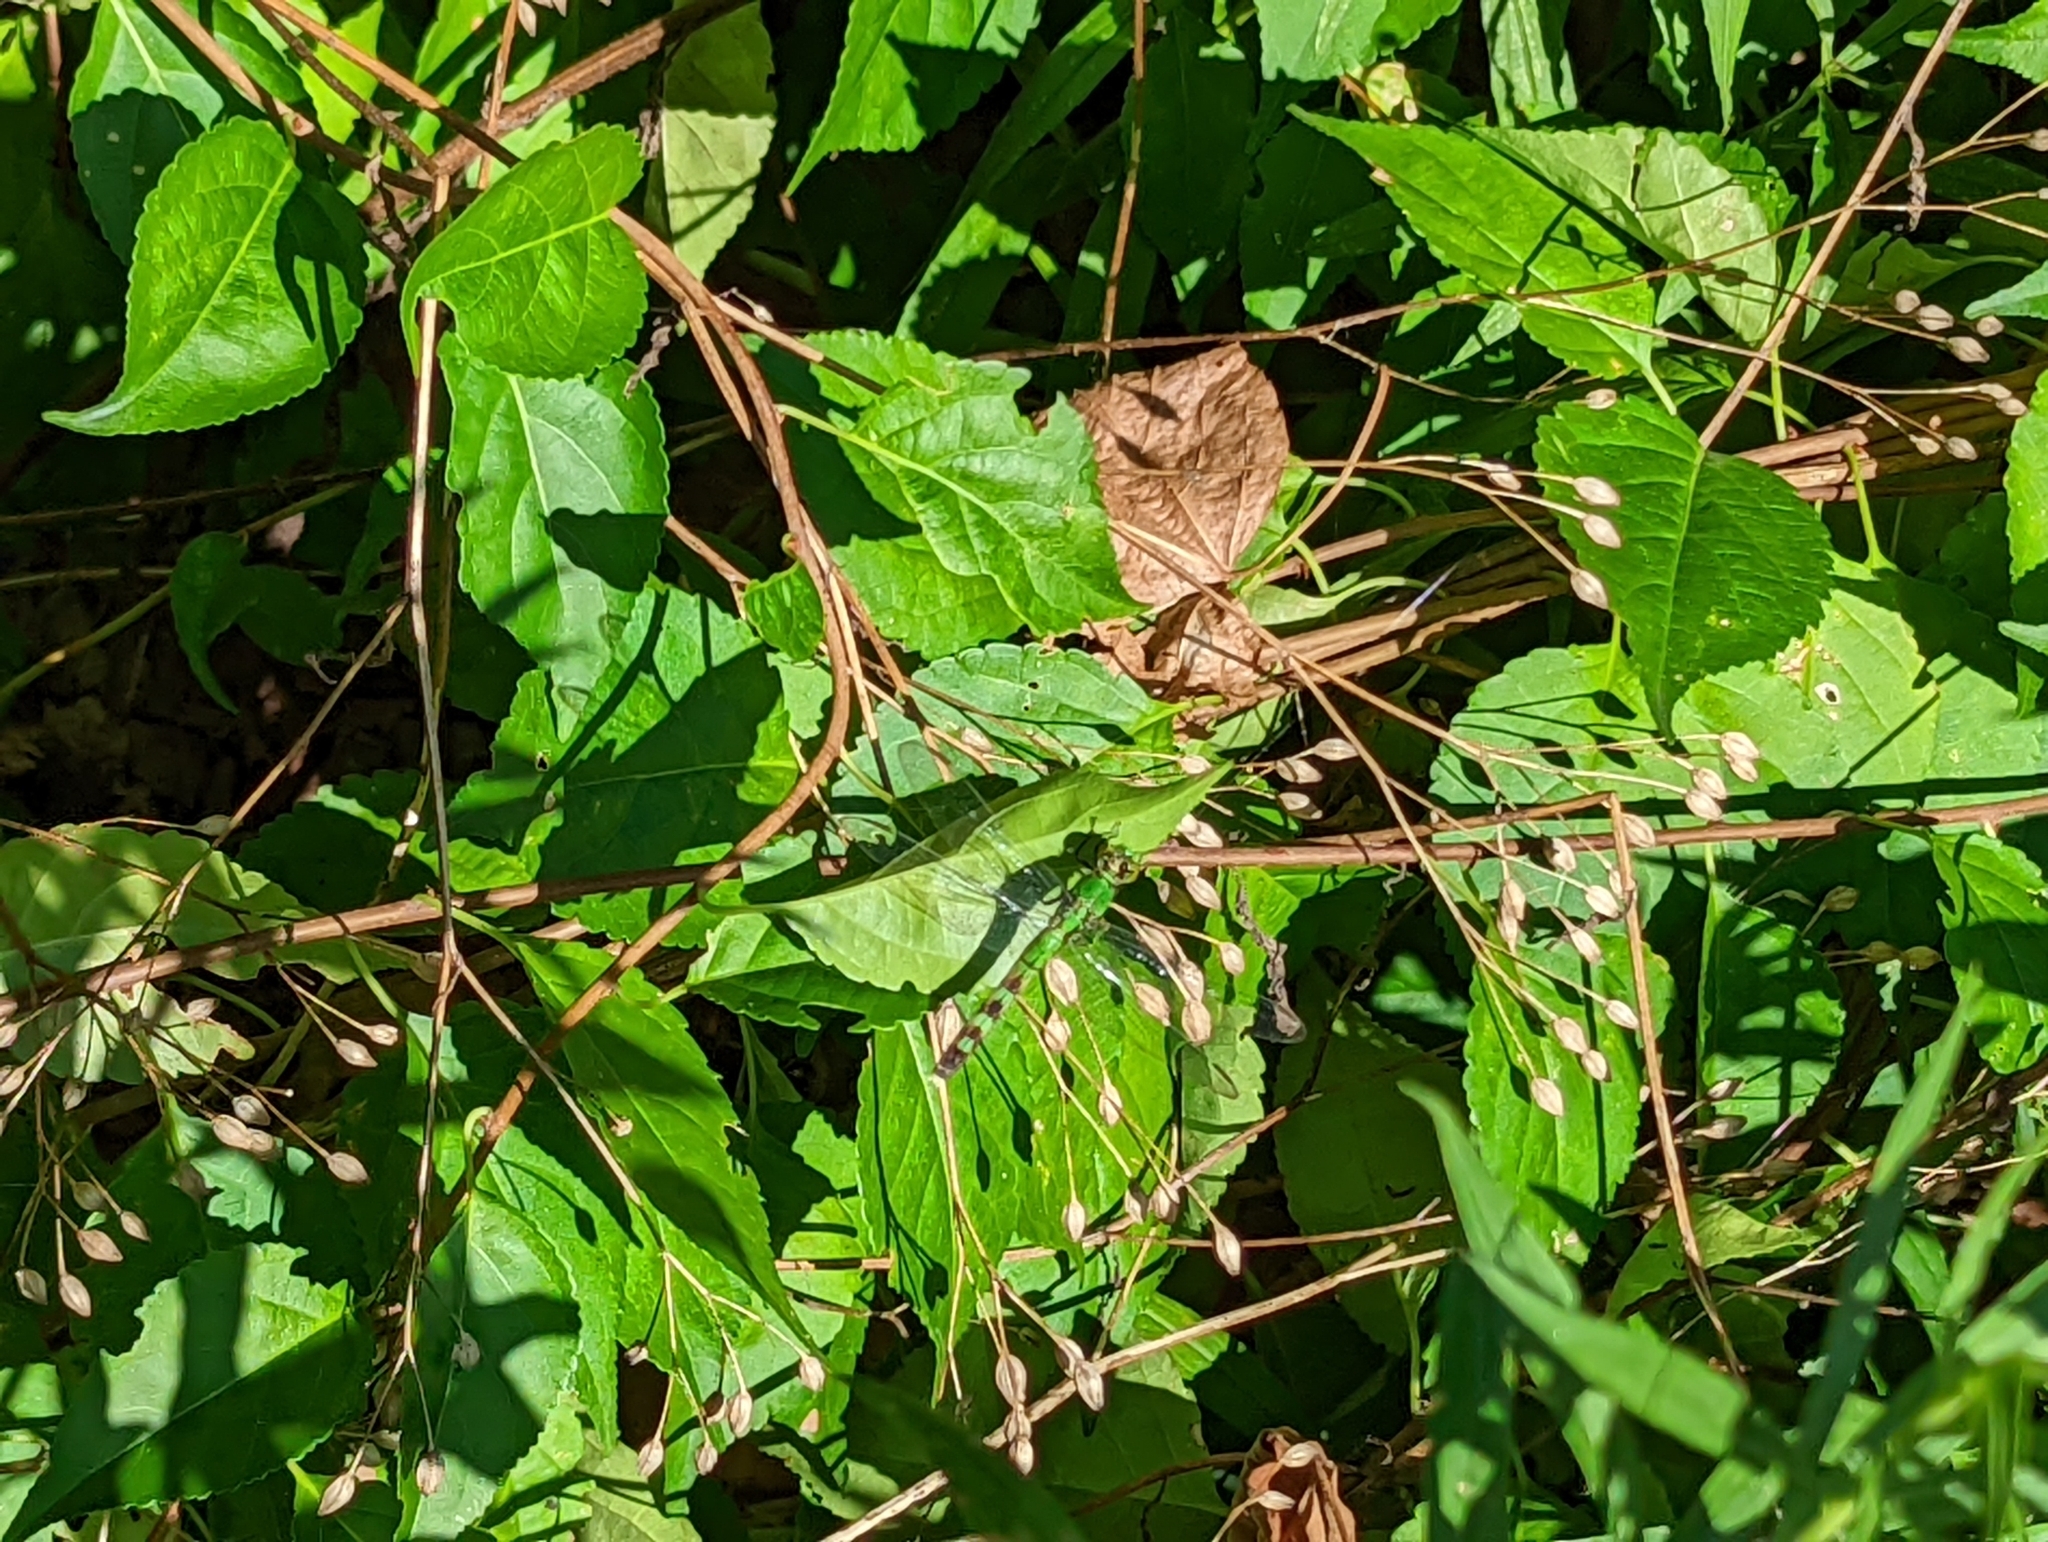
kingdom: Animalia
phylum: Arthropoda
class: Insecta
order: Odonata
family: Libellulidae
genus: Erythemis
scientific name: Erythemis simplicicollis
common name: Eastern pondhawk
